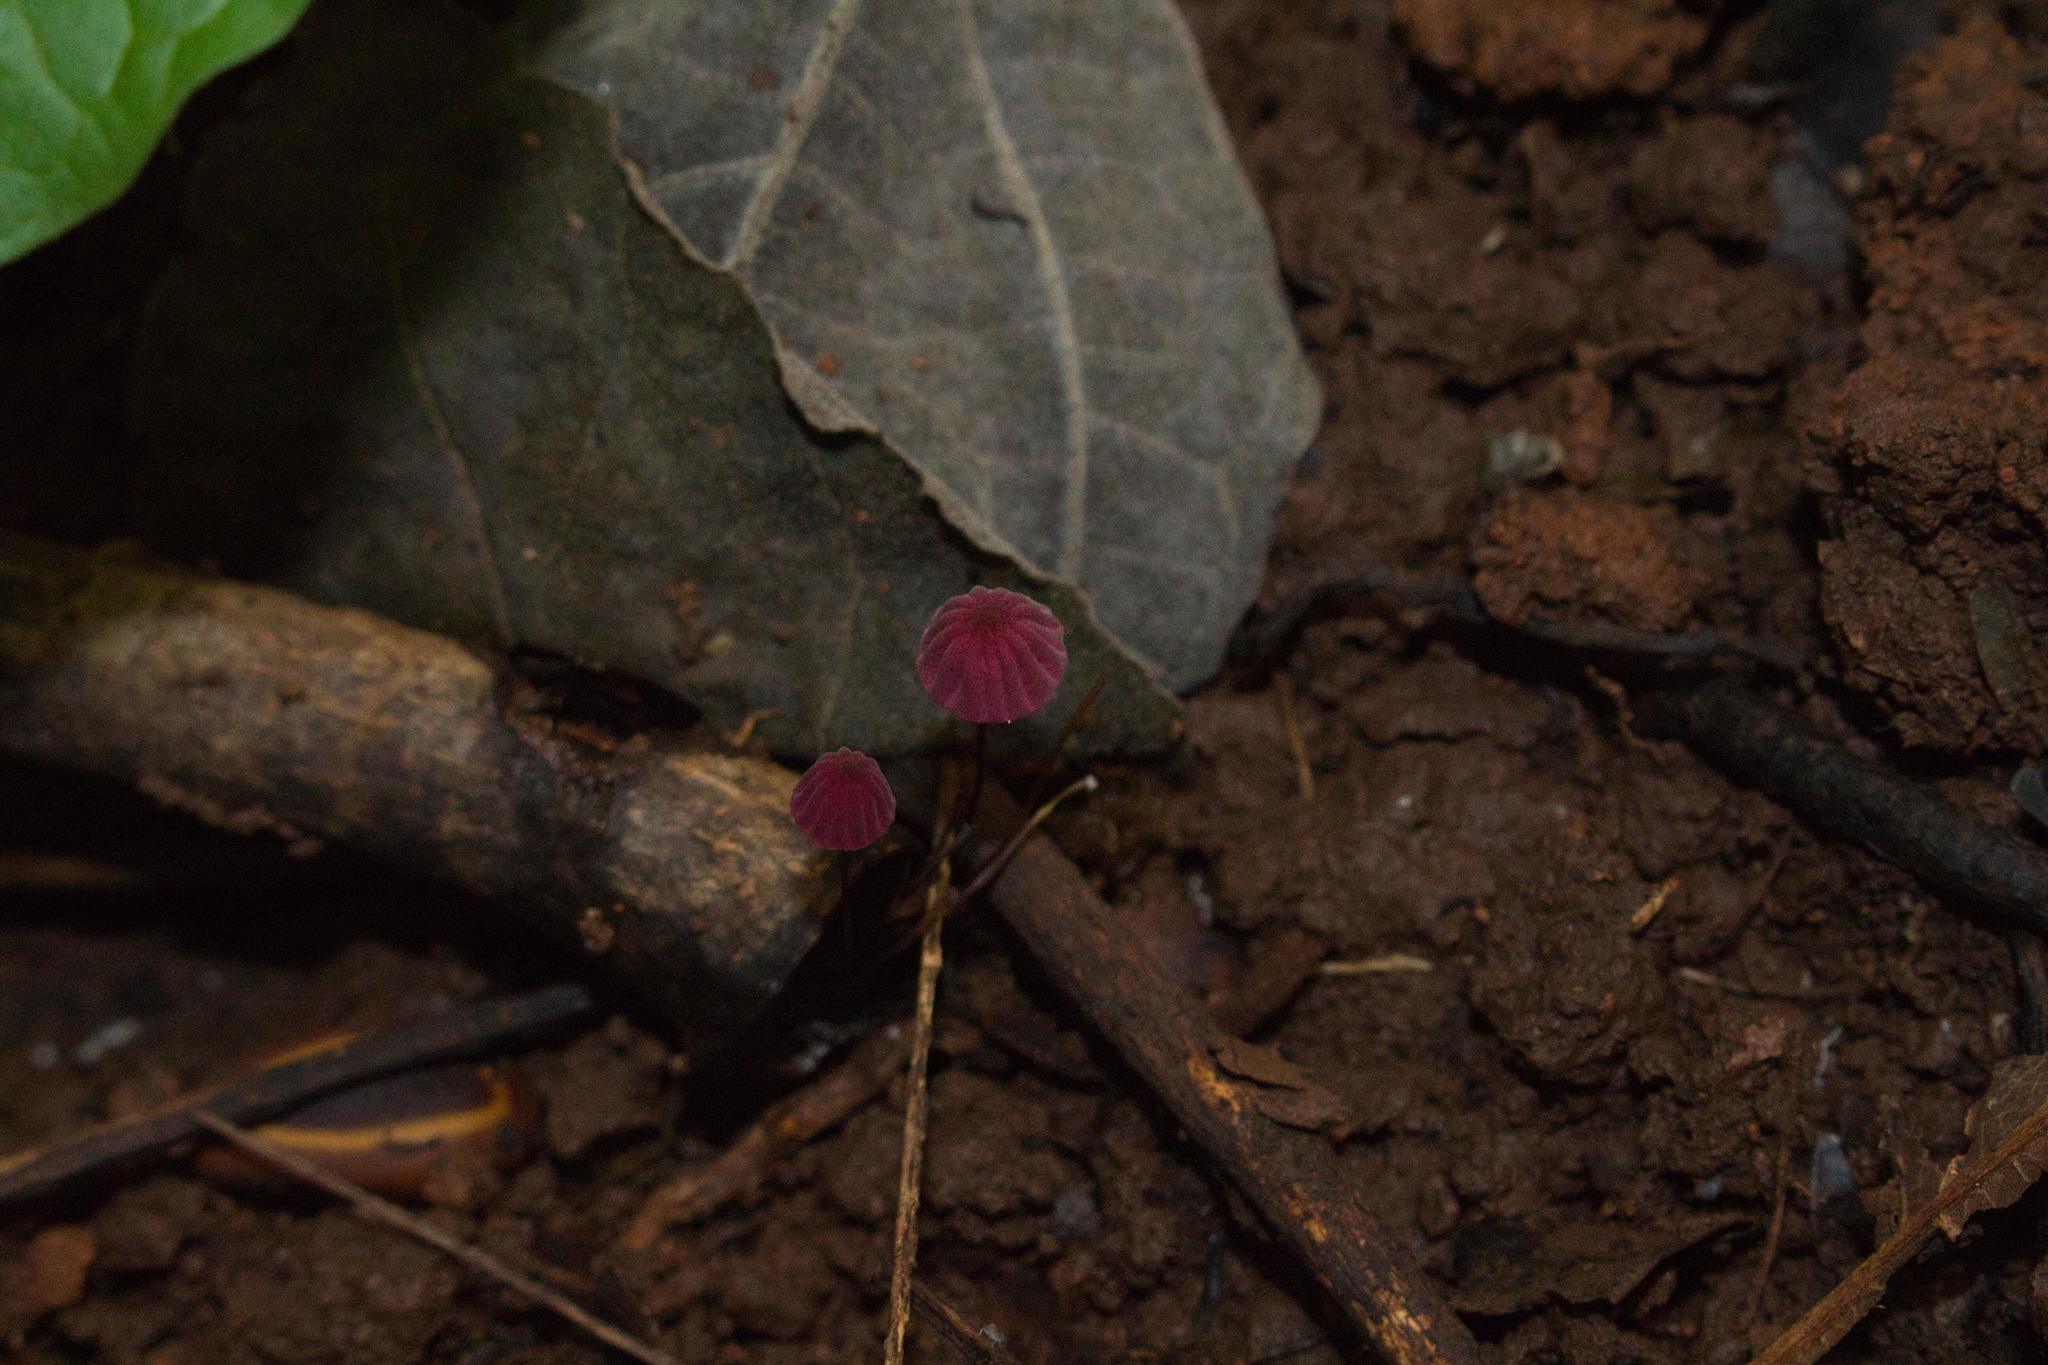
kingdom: Fungi
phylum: Basidiomycota
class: Agaricomycetes
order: Agaricales
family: Marasmiaceae
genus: Marasmius
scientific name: Marasmius haematocephalus
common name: Purple pinwheel
